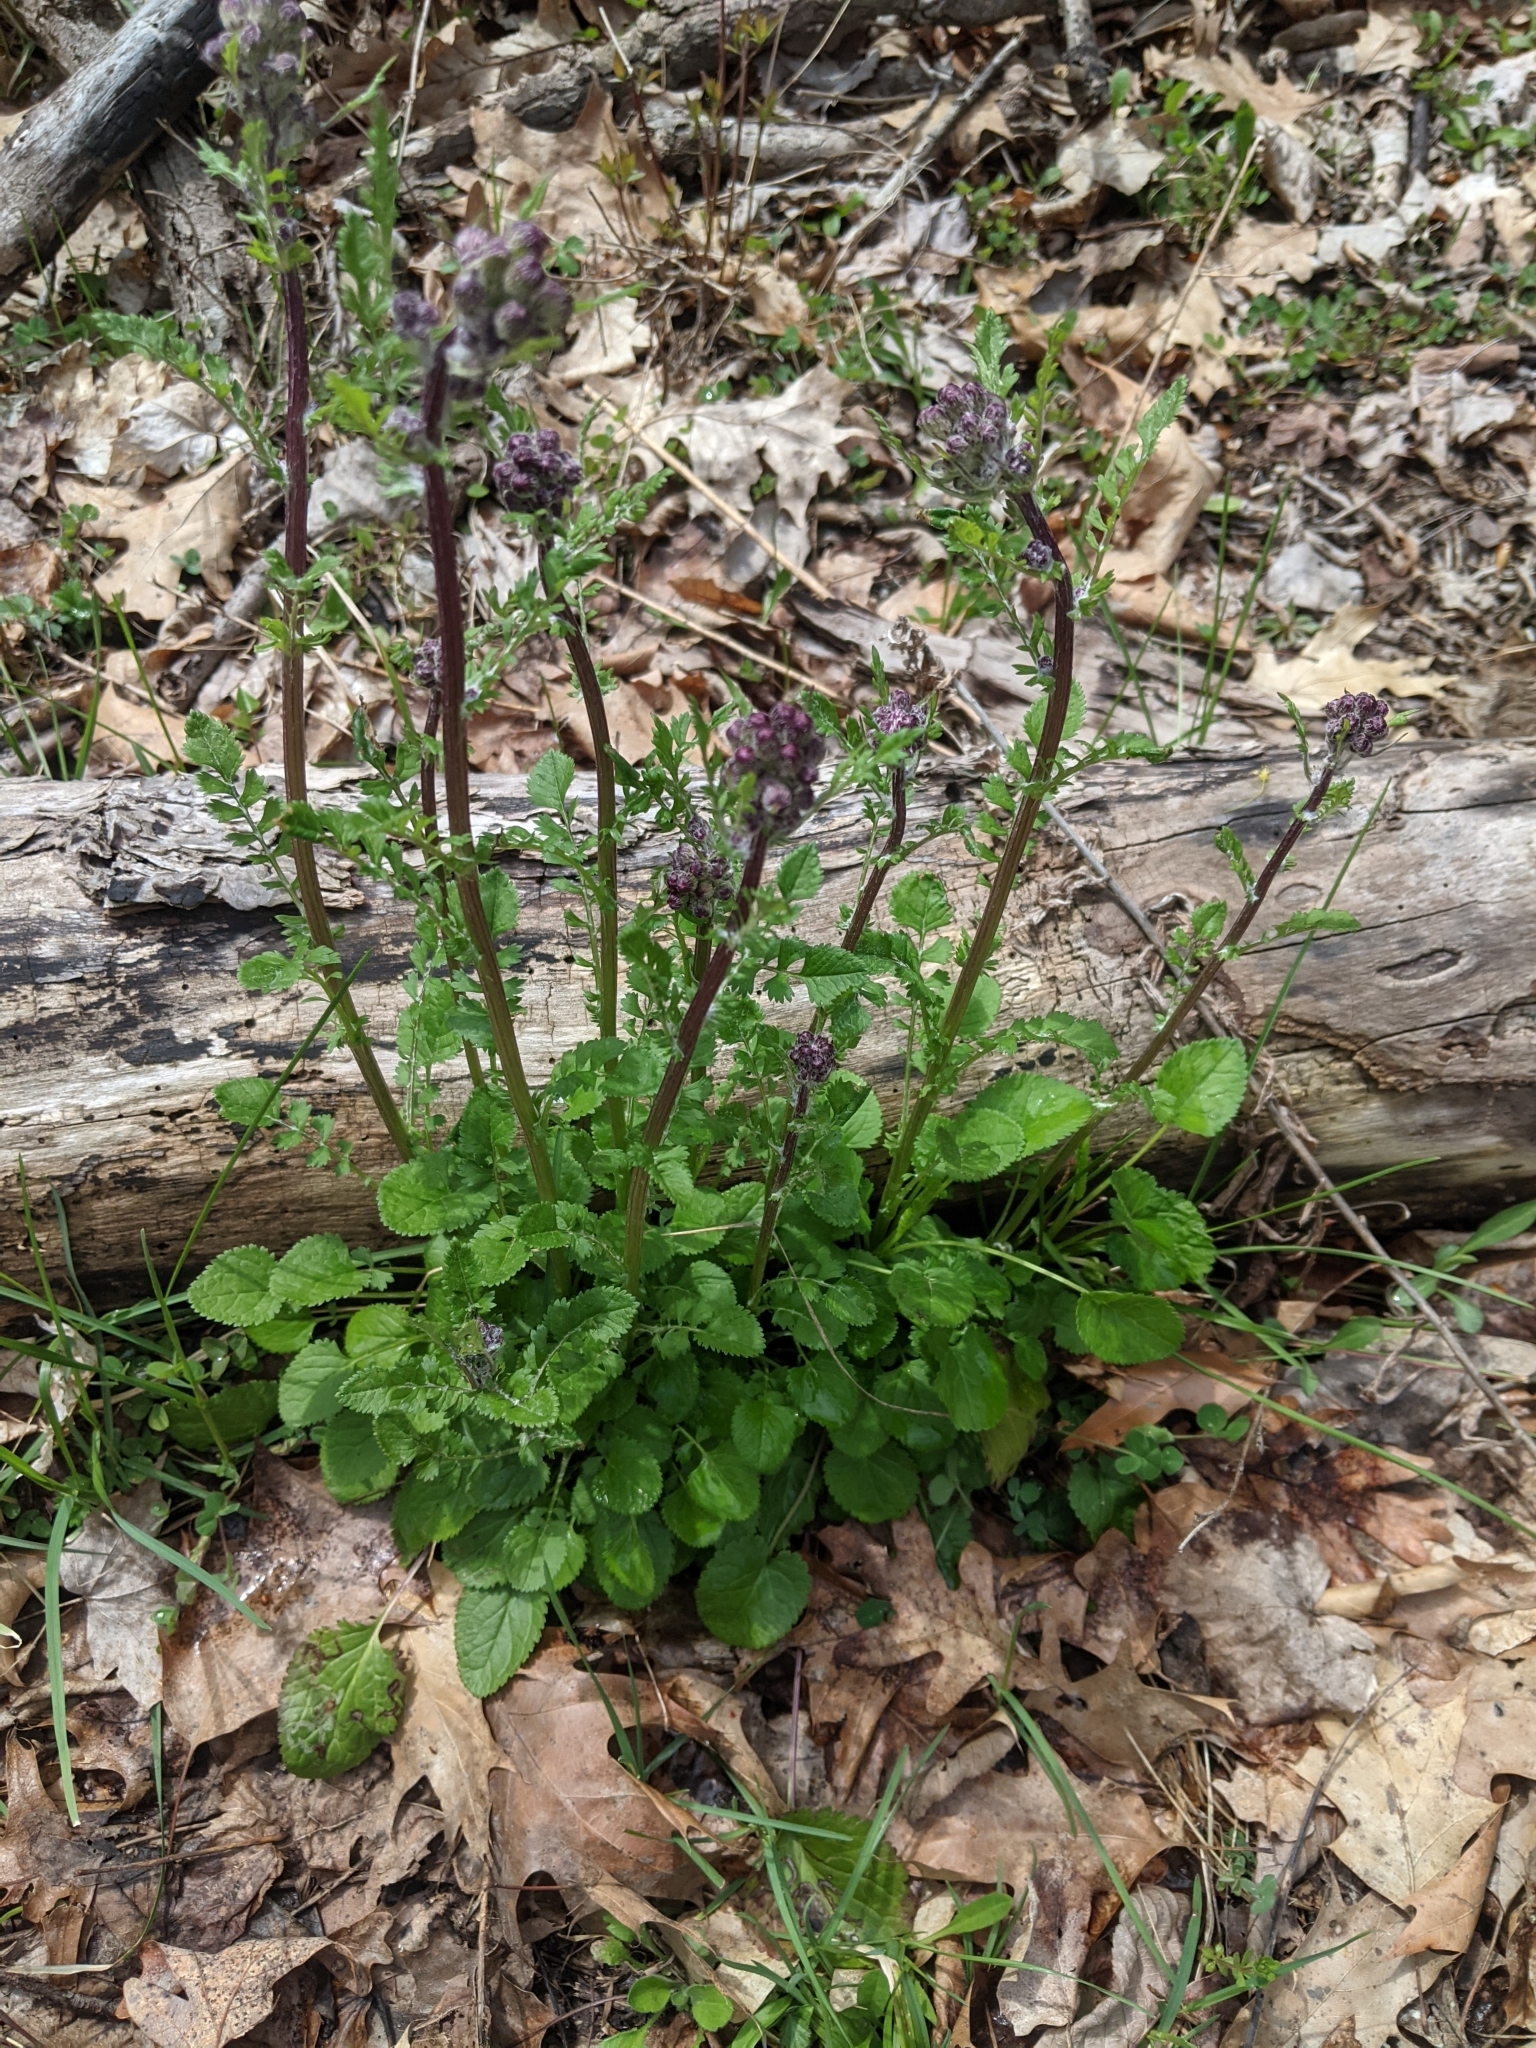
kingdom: Plantae
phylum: Tracheophyta
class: Magnoliopsida
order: Asterales
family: Asteraceae
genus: Packera
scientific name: Packera aurea
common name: Golden groundsel
